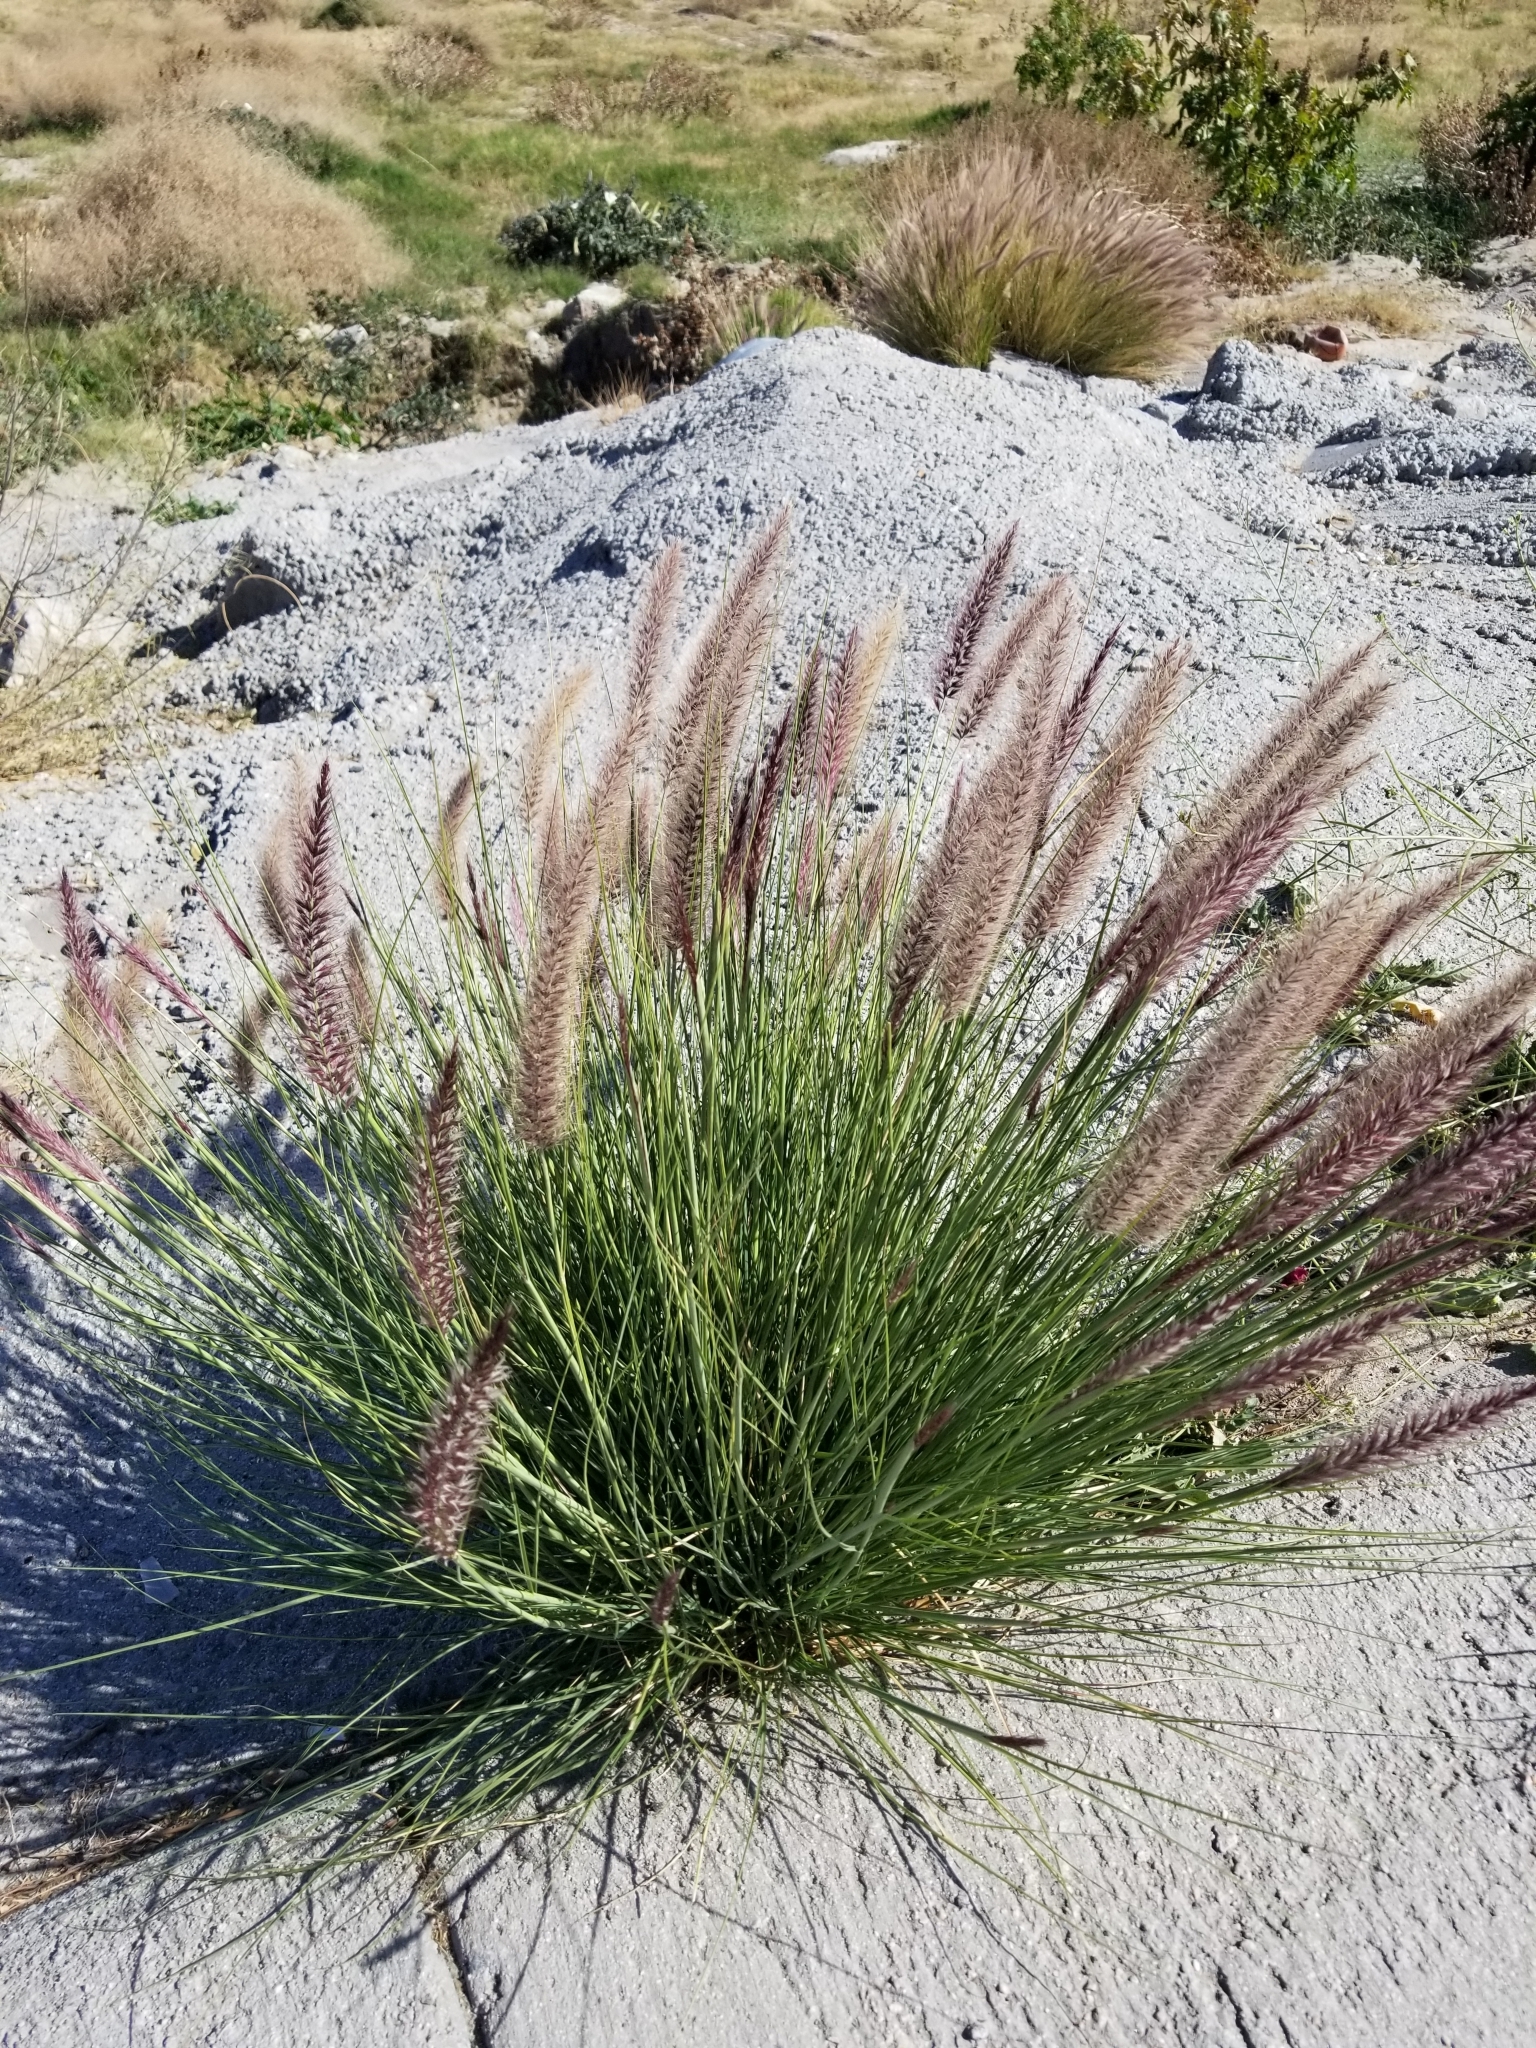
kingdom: Plantae
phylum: Tracheophyta
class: Liliopsida
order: Poales
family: Poaceae
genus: Cenchrus
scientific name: Cenchrus setaceus
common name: Crimson fountaingrass
